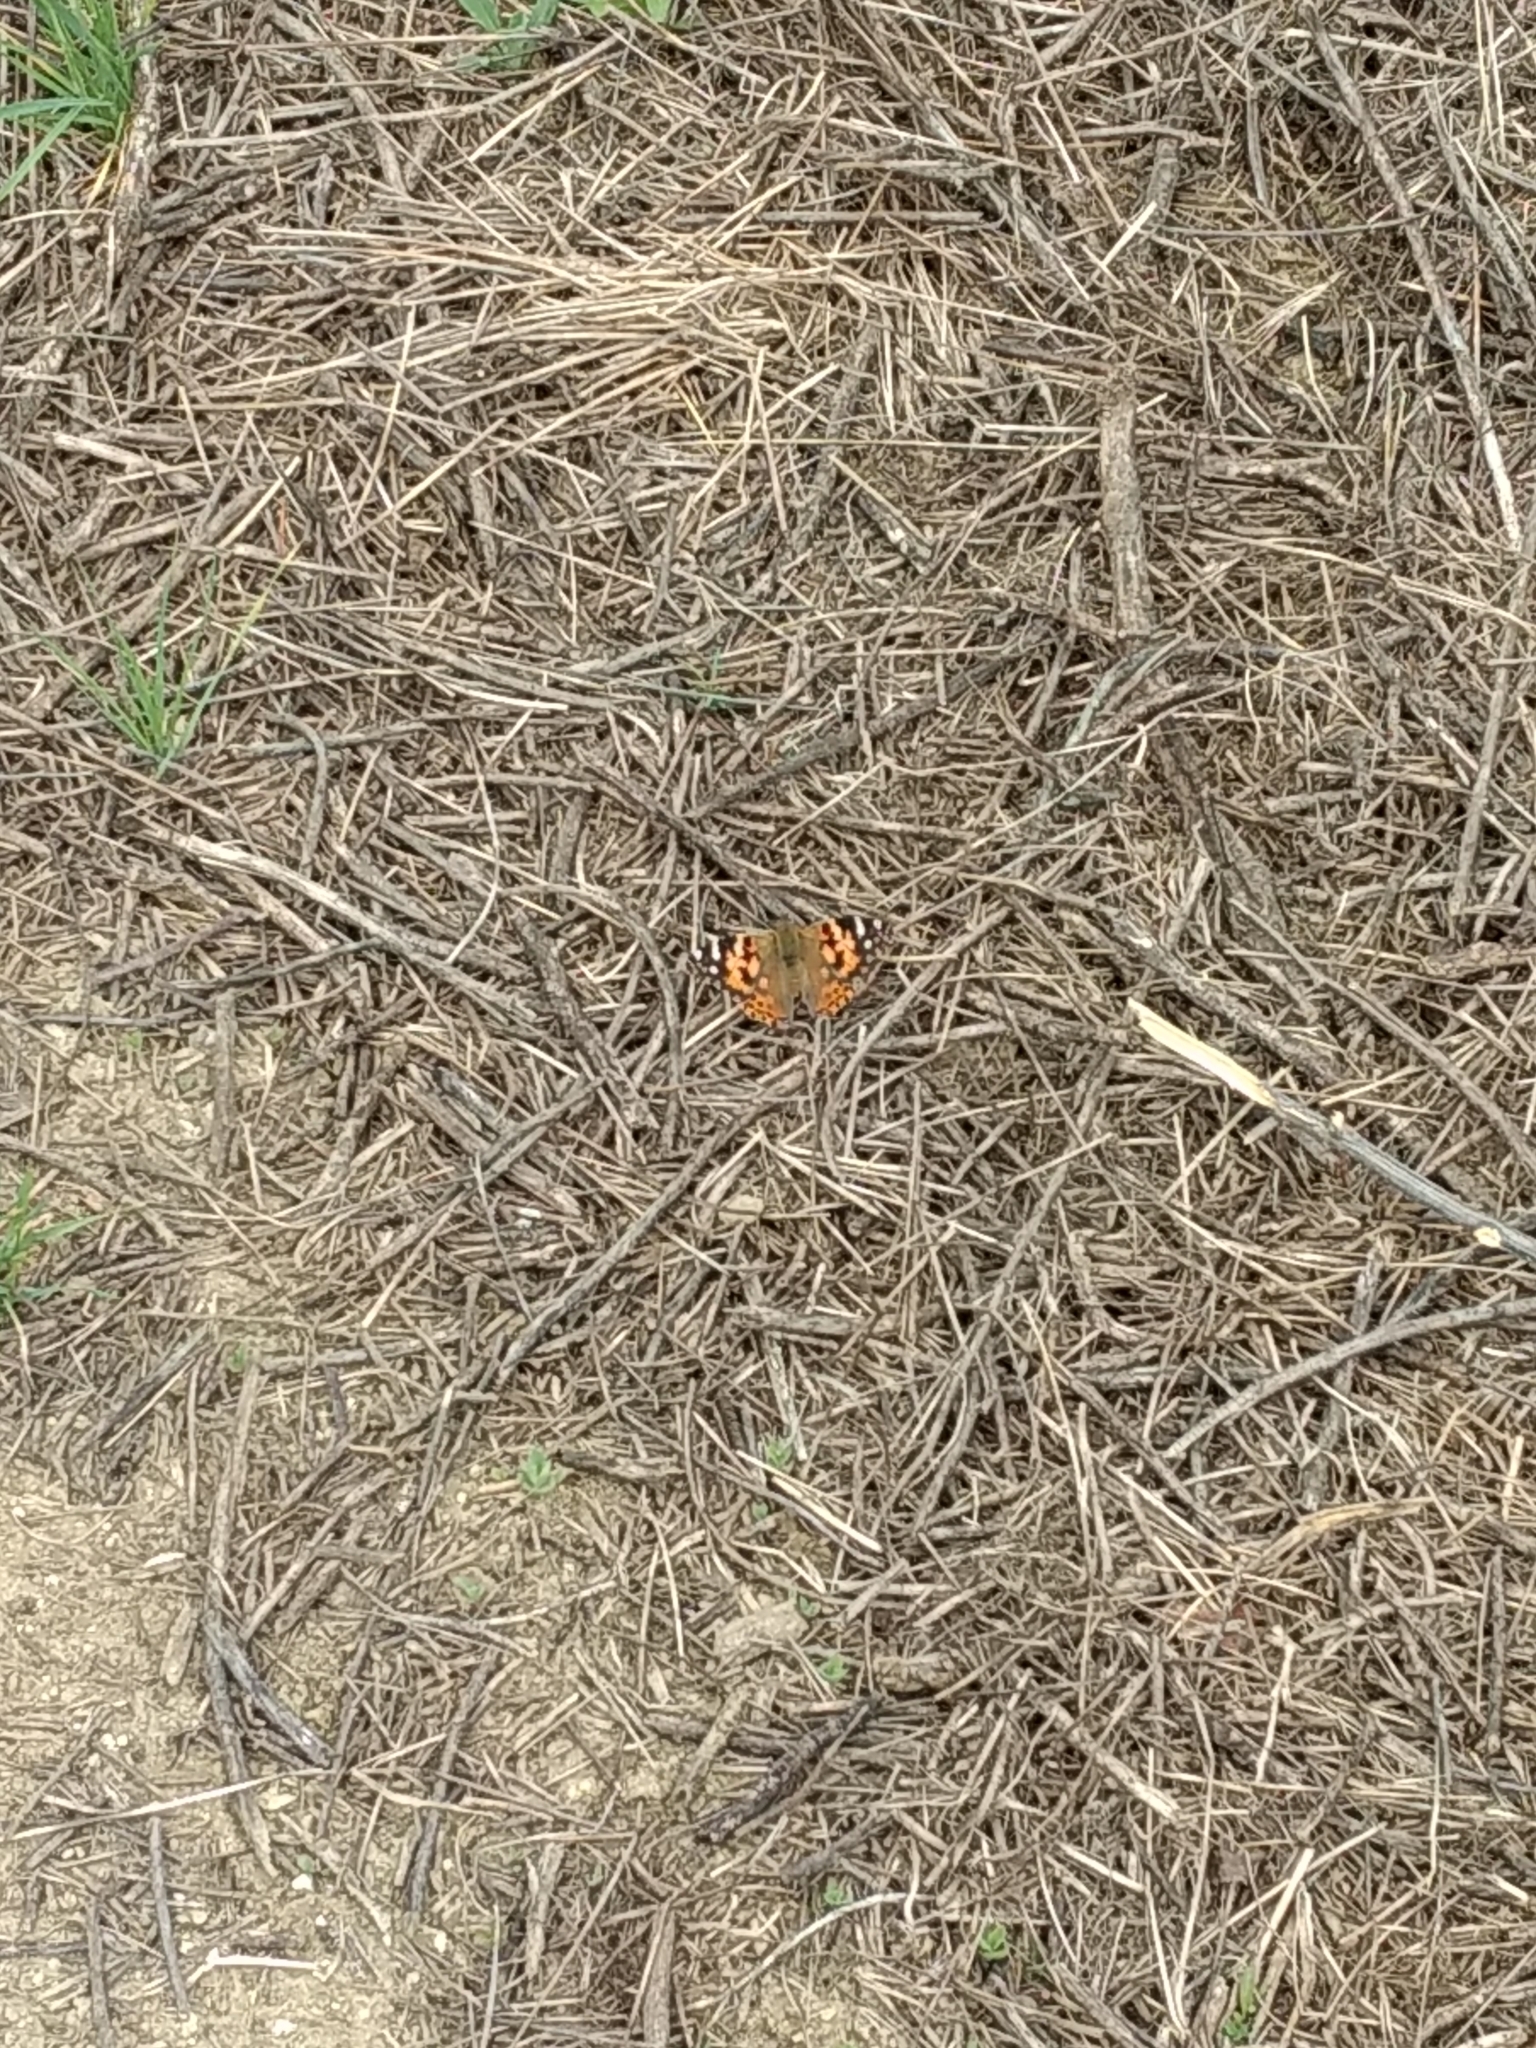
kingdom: Animalia
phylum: Arthropoda
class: Insecta
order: Lepidoptera
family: Nymphalidae
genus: Vanessa
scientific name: Vanessa cardui
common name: Painted lady
